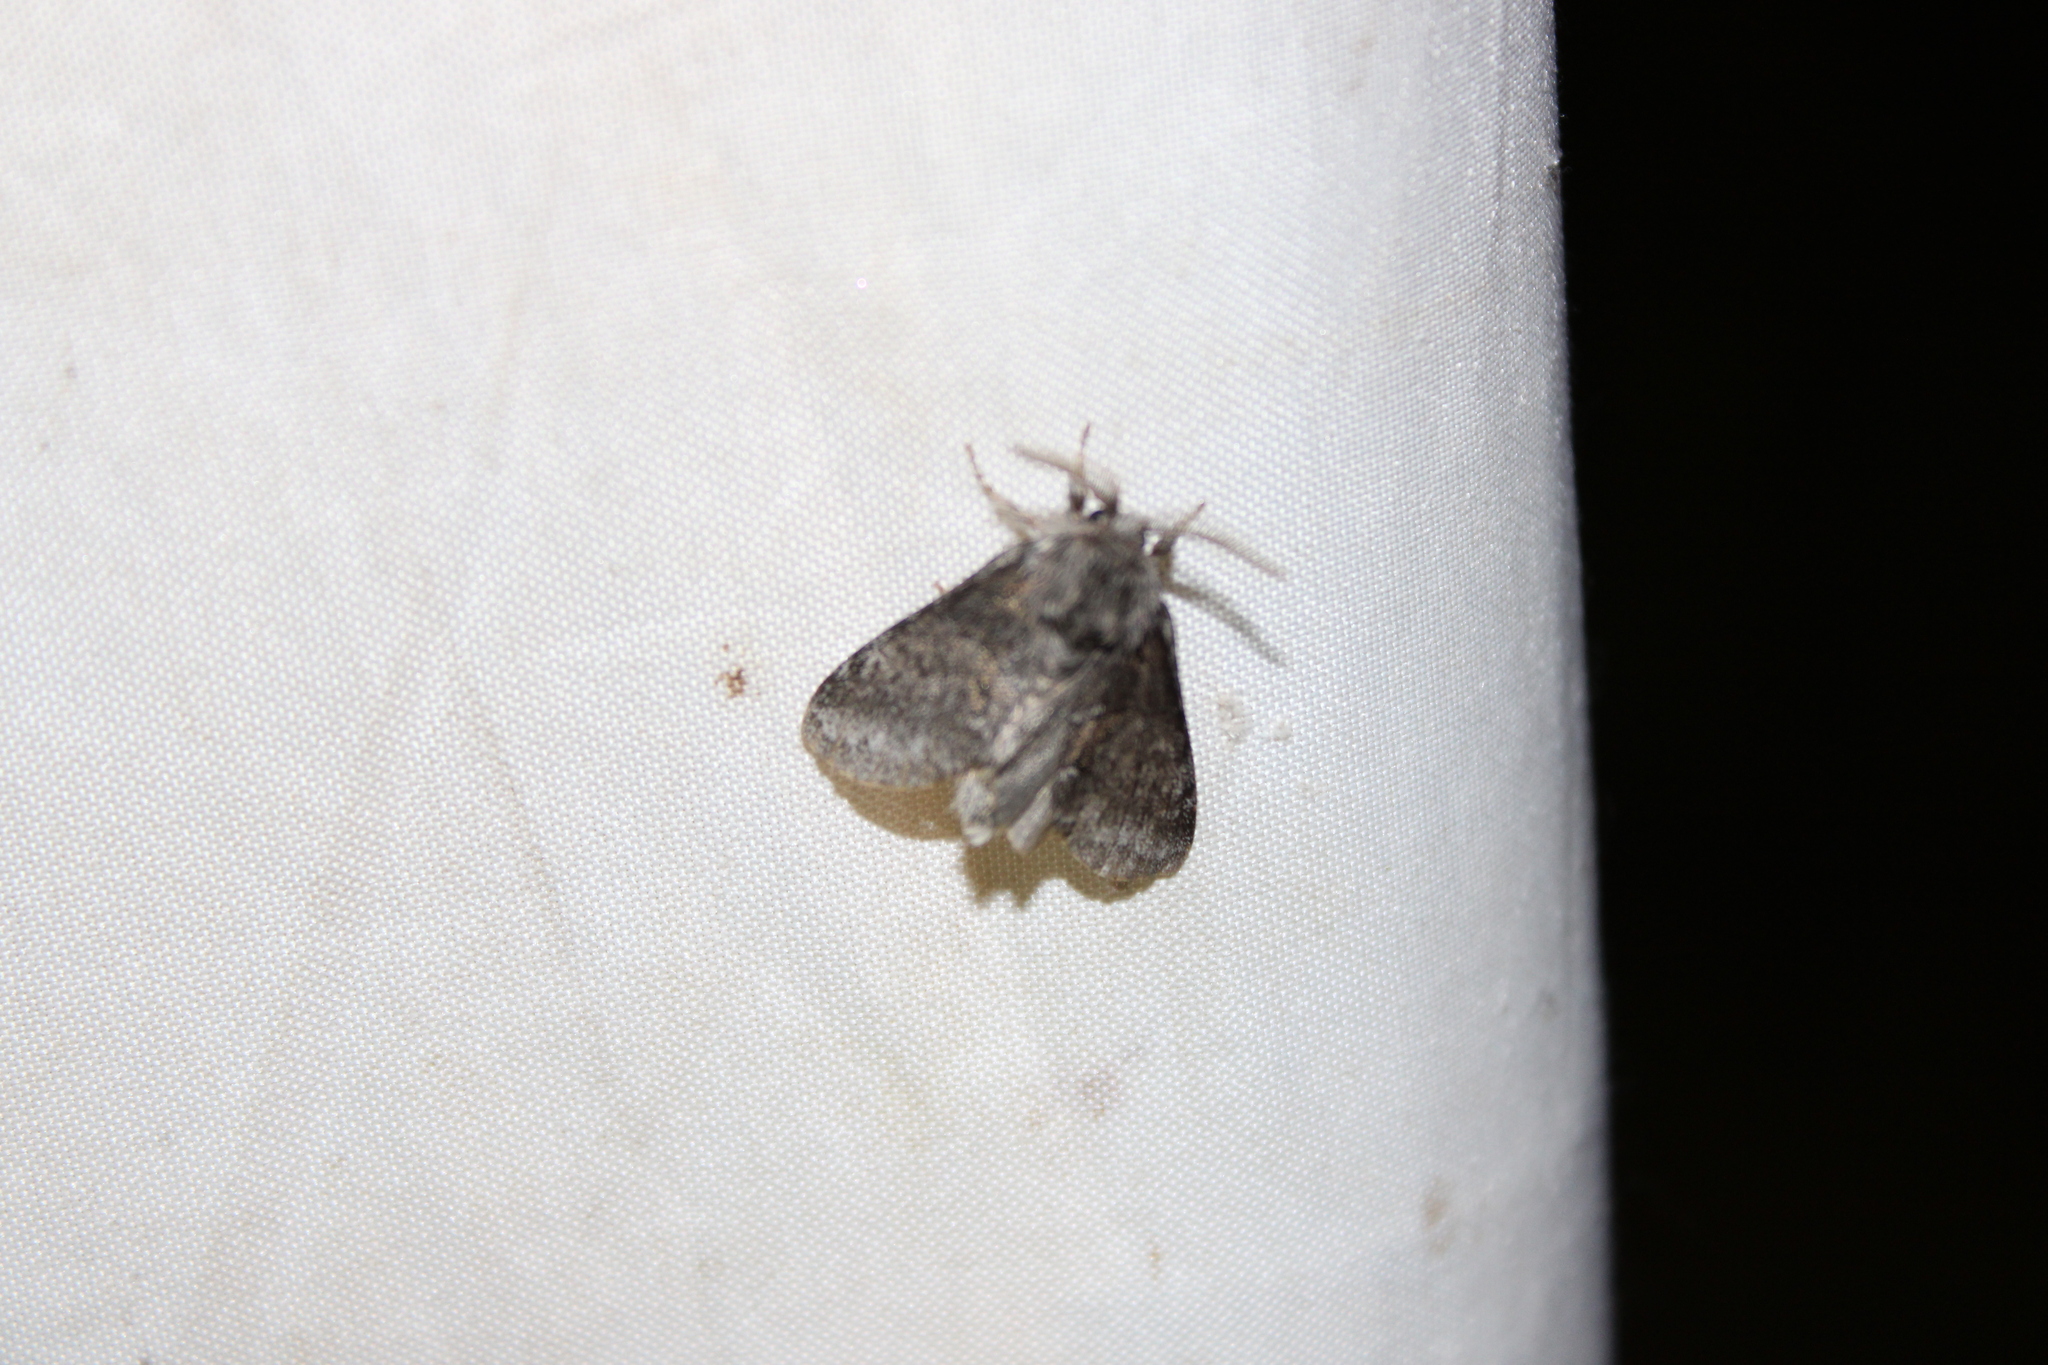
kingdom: Animalia
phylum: Arthropoda
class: Insecta
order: Lepidoptera
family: Notodontidae
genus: Gluphisia
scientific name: Gluphisia septentrionis
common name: Common gluphisia
